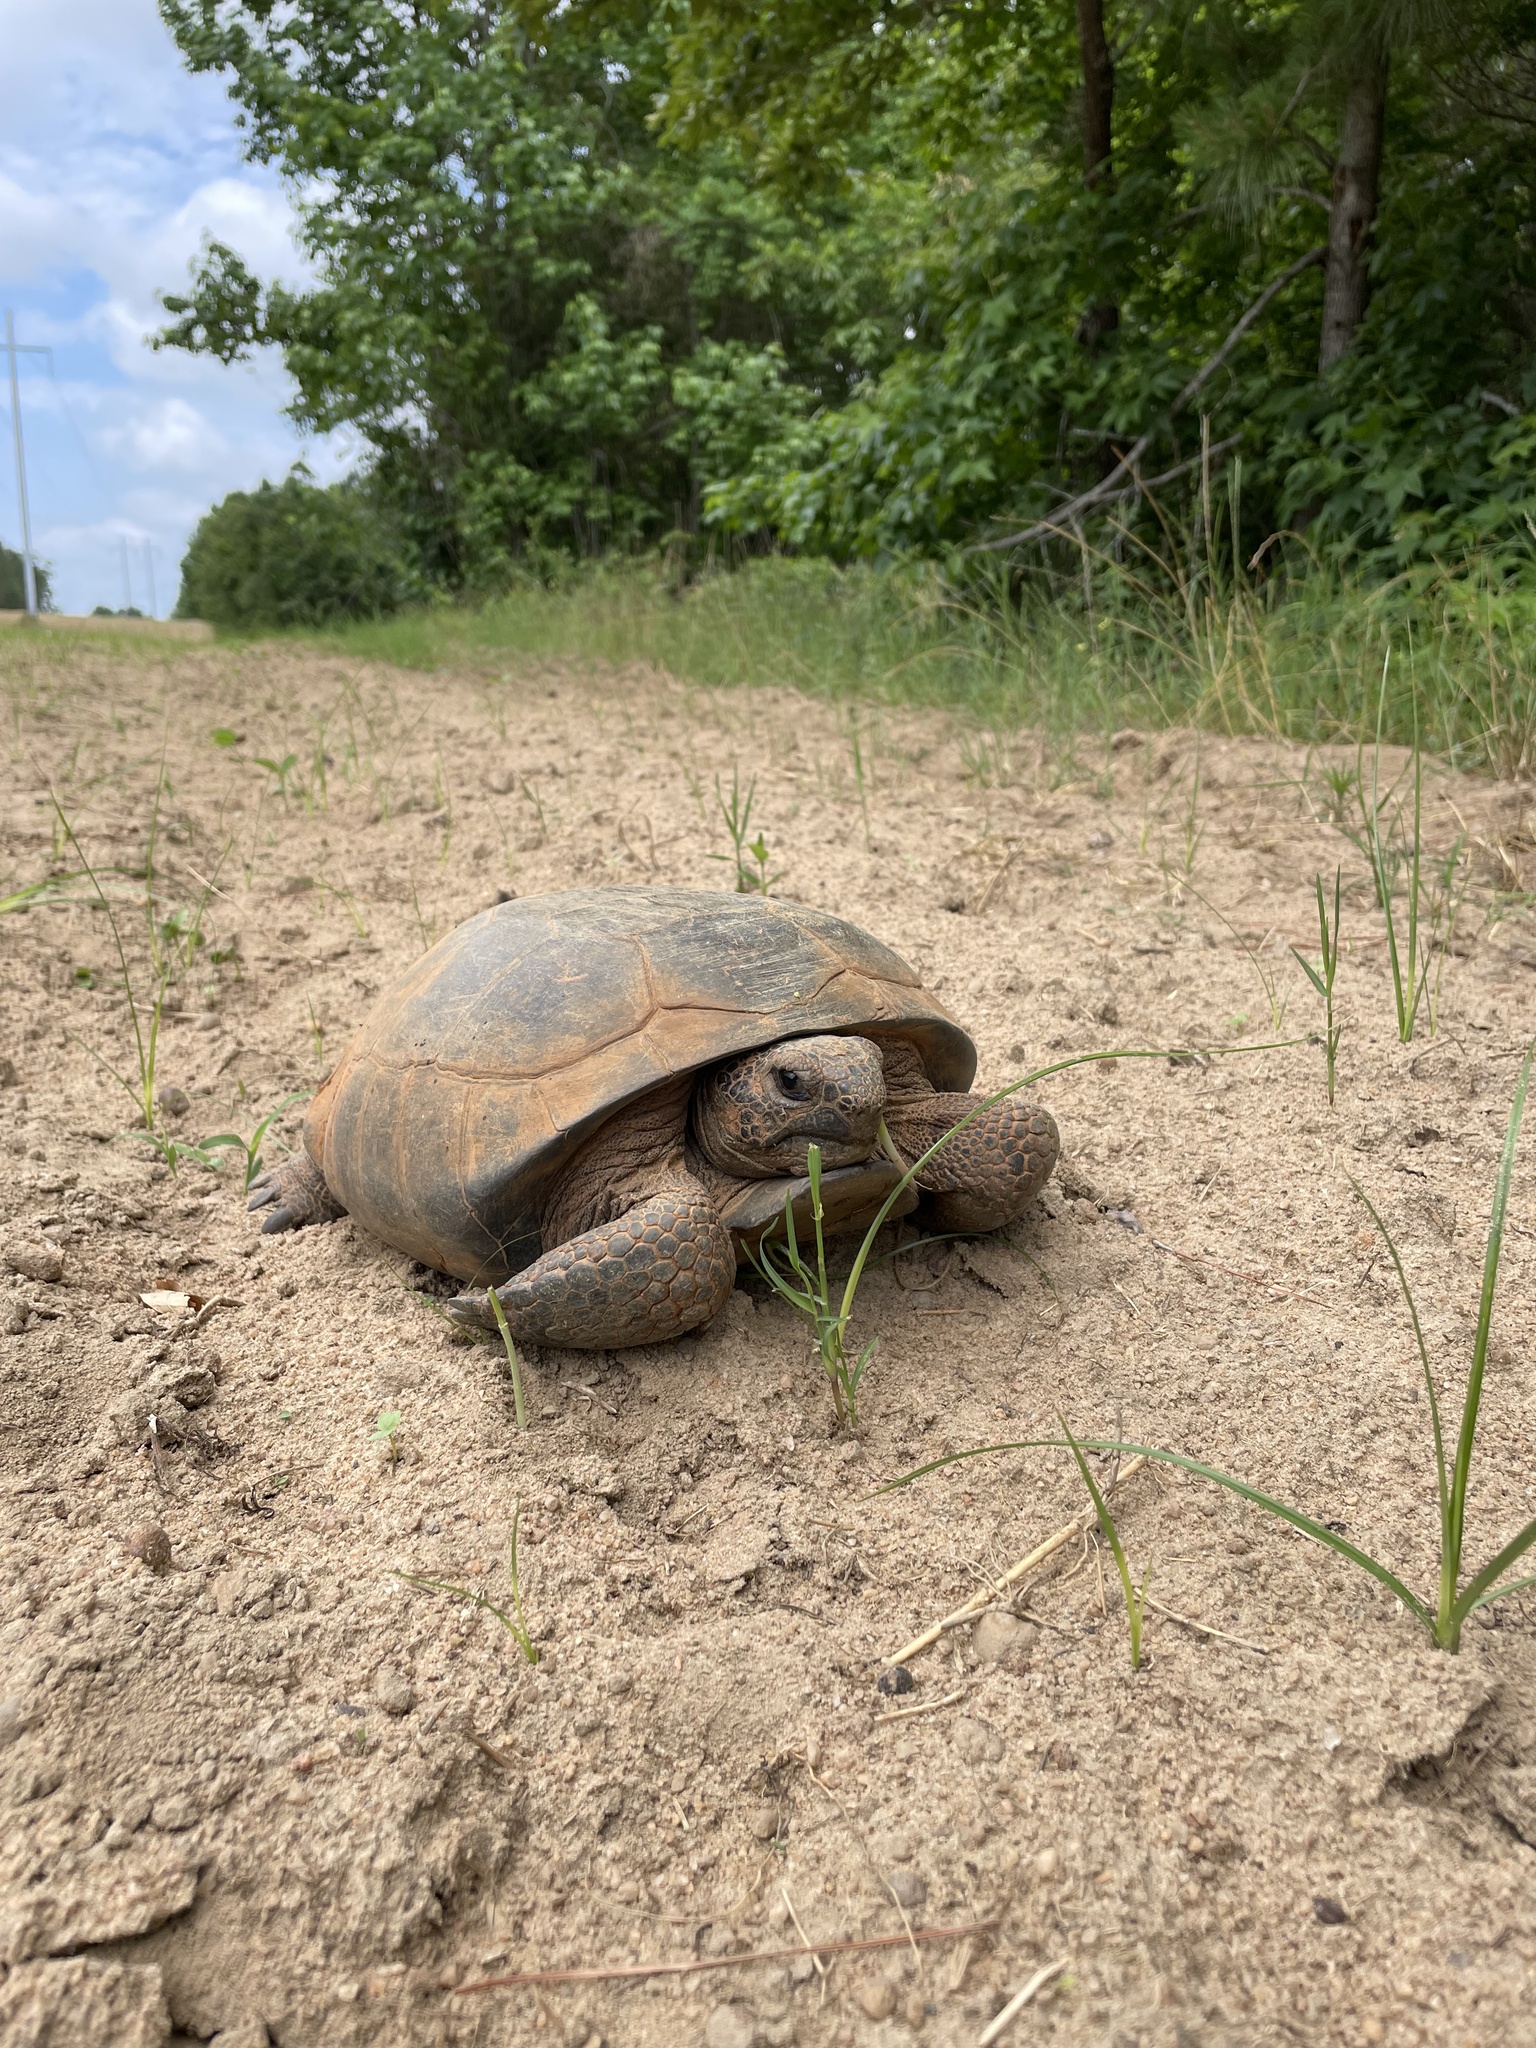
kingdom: Animalia
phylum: Chordata
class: Testudines
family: Testudinidae
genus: Gopherus
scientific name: Gopherus polyphemus
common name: Florida gopher tortoise
